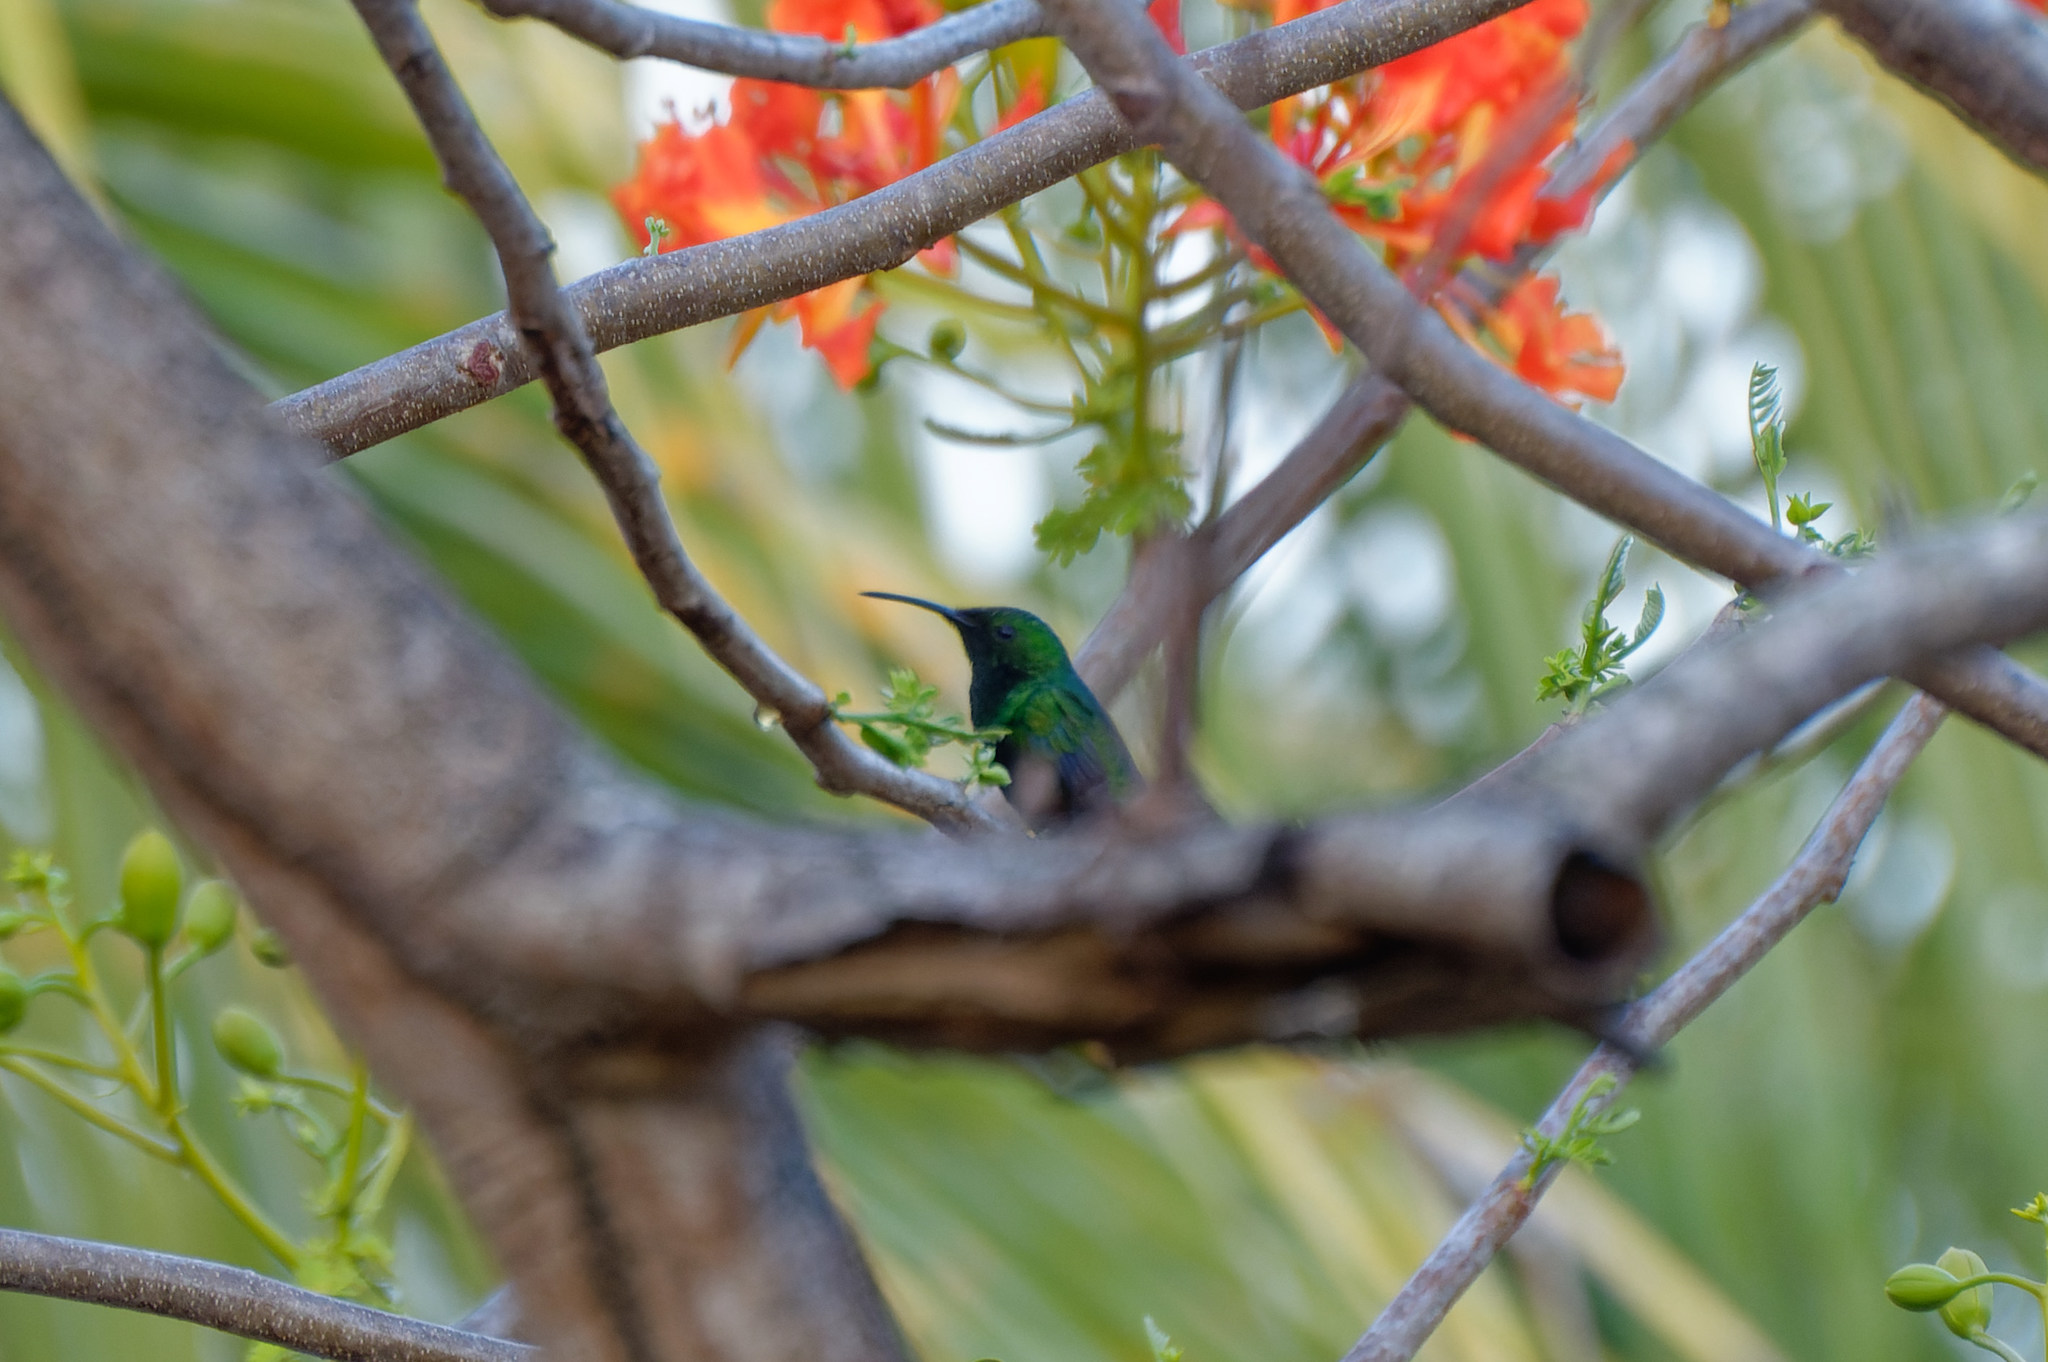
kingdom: Animalia
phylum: Chordata
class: Aves
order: Apodiformes
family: Trochilidae
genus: Eulampis
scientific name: Eulampis holosericeus
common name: Green-throated carib
